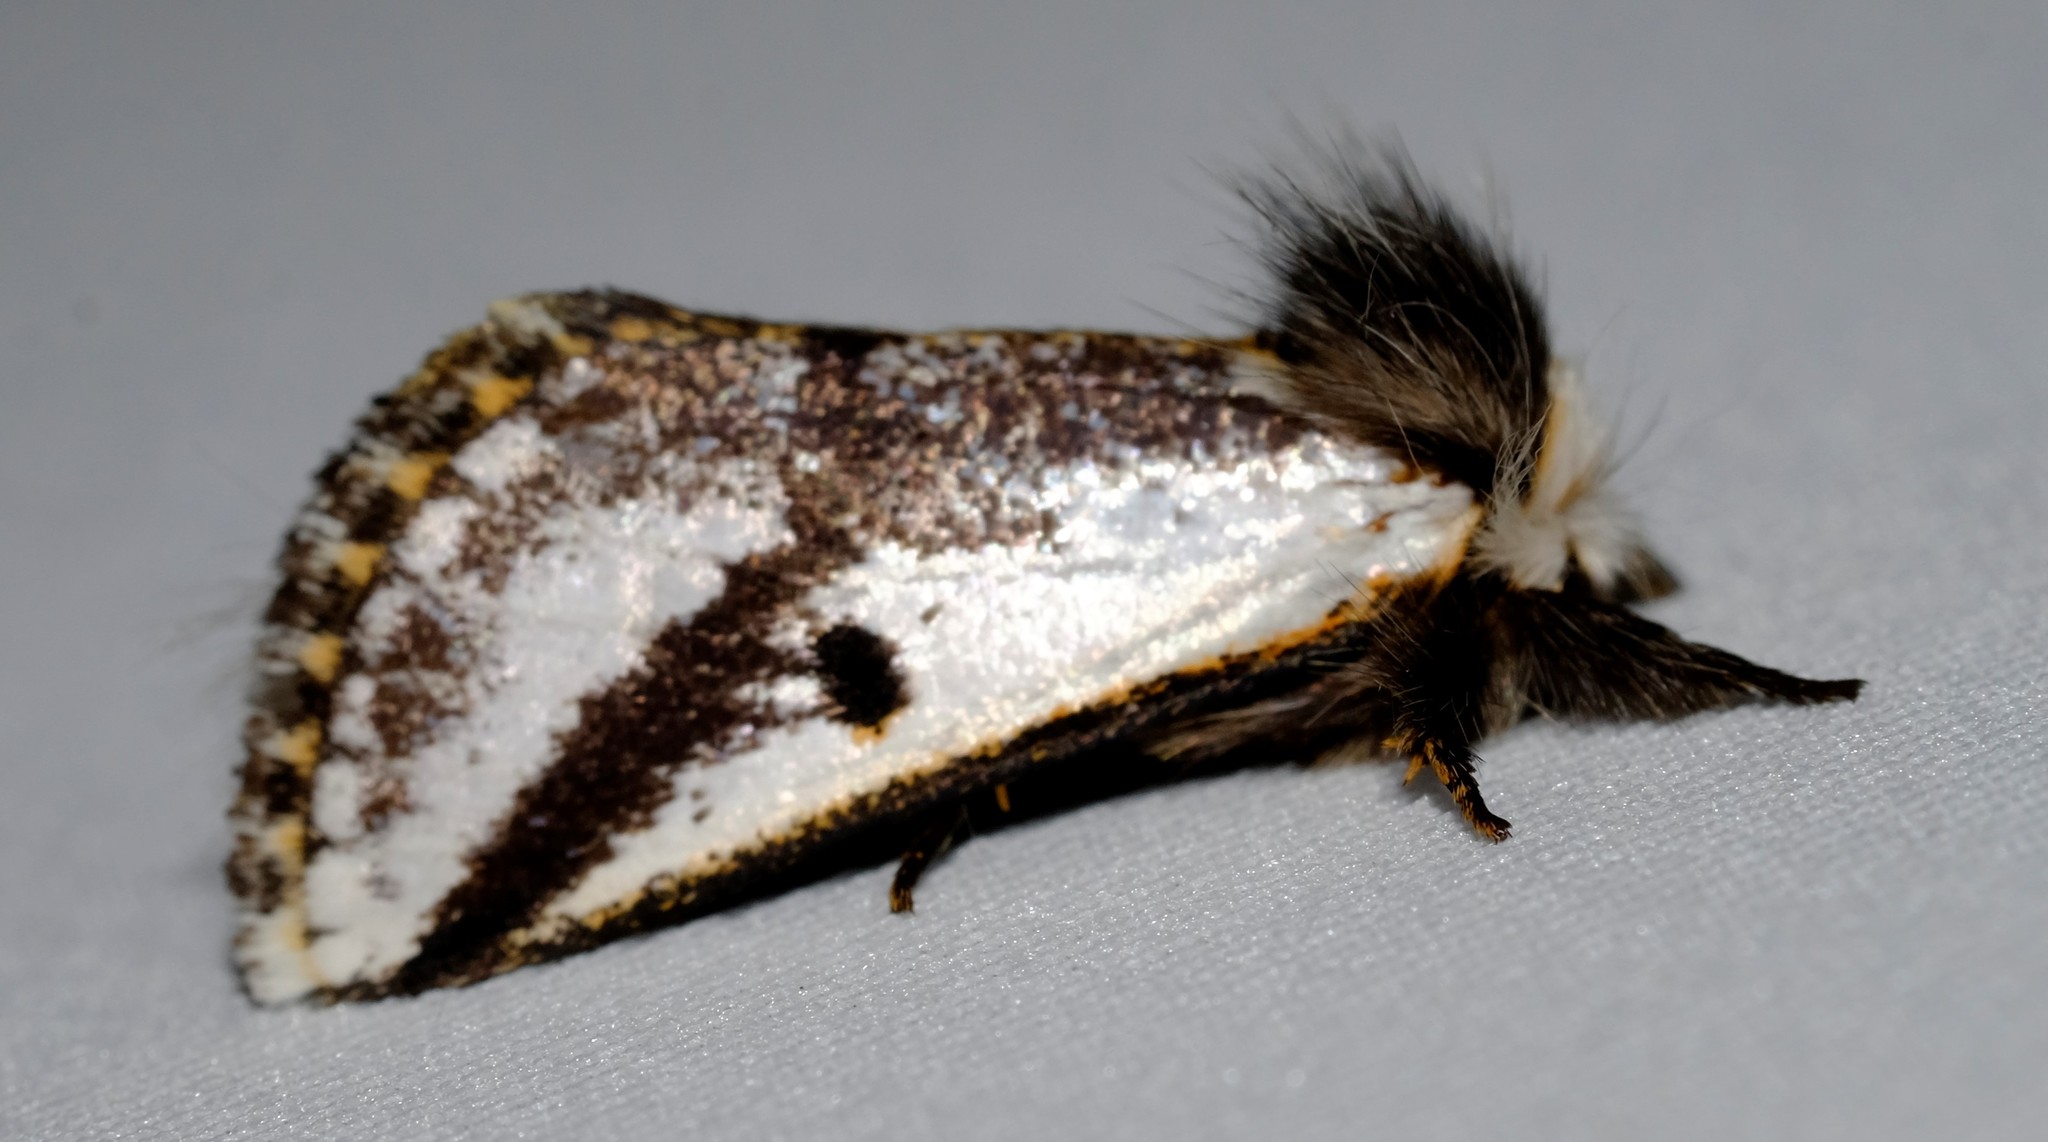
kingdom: Animalia
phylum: Arthropoda
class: Insecta
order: Lepidoptera
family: Notodontidae
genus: Epicoma
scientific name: Epicoma melanospila
